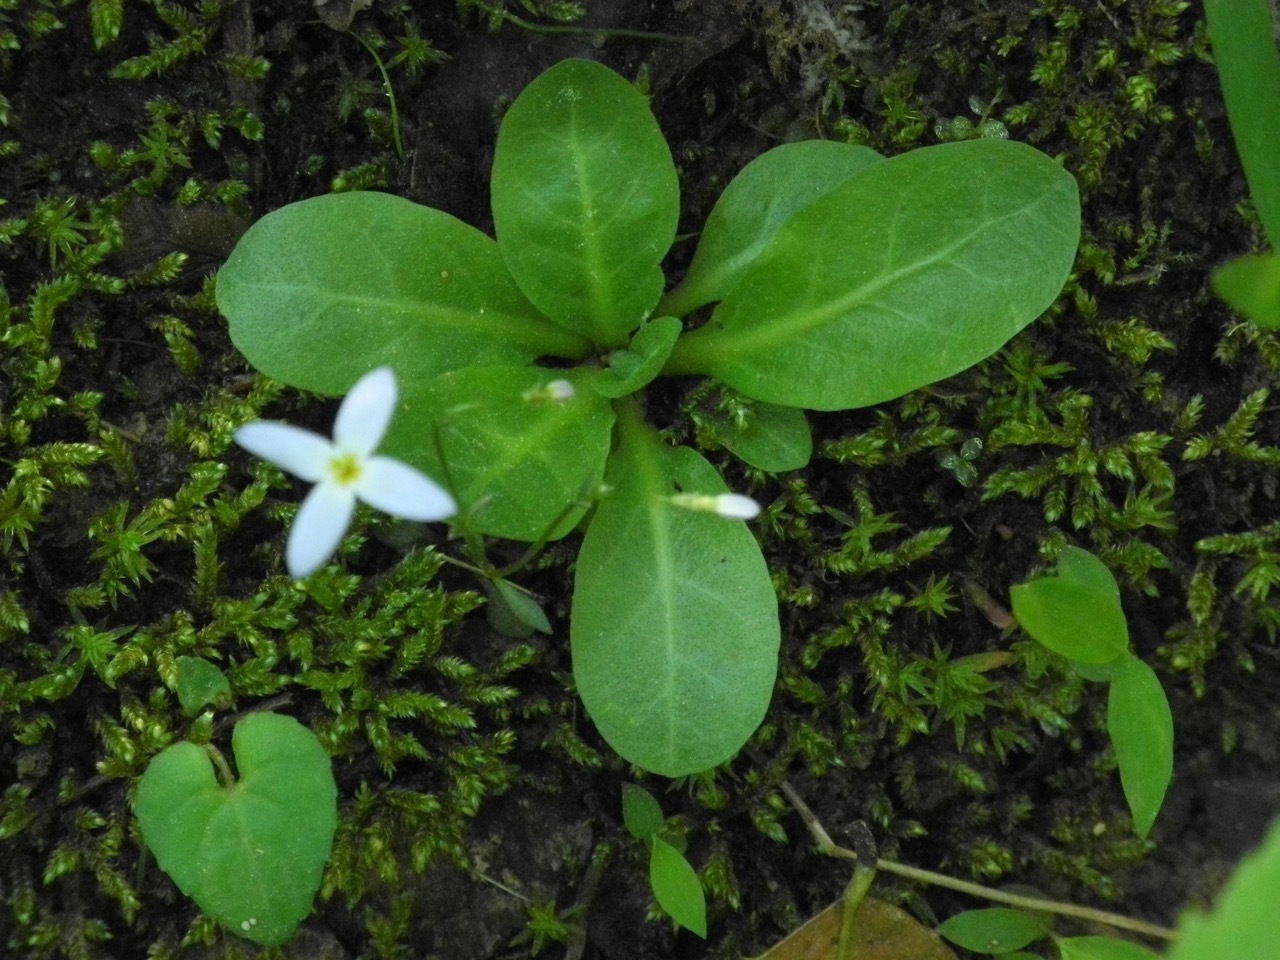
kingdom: Plantae
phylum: Tracheophyta
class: Magnoliopsida
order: Ericales
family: Primulaceae
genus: Samolus
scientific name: Samolus parviflorus
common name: False water pimpernel
